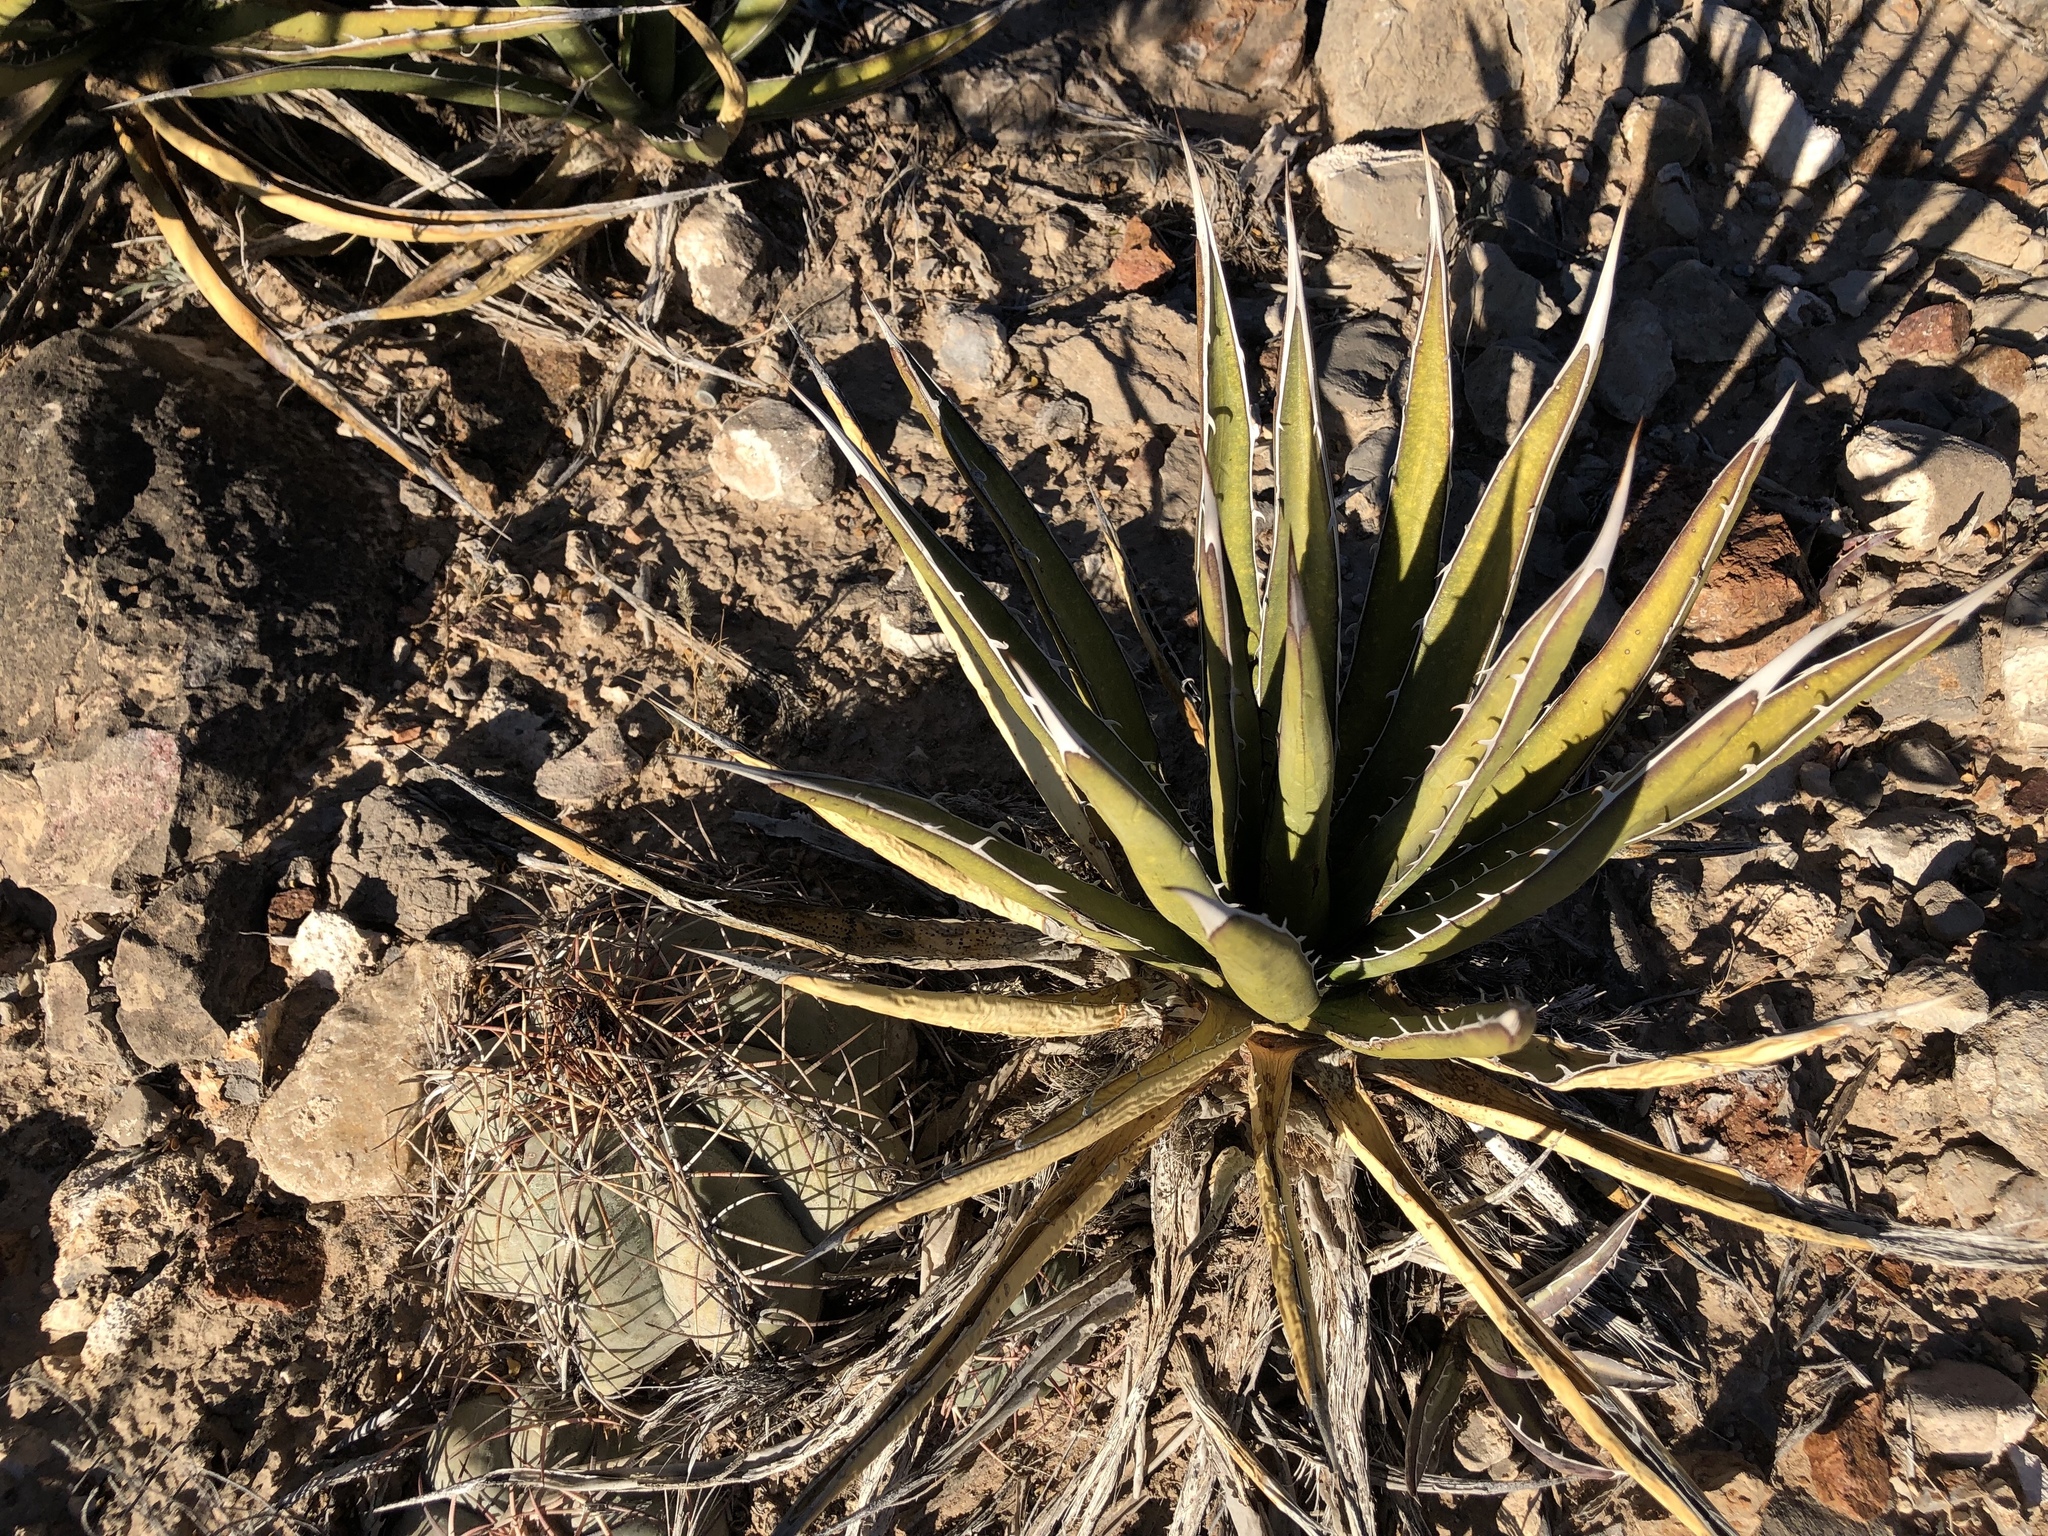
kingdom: Plantae
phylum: Tracheophyta
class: Liliopsida
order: Asparagales
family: Asparagaceae
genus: Agave
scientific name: Agave lechuguilla
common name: Lecheguilla agave
